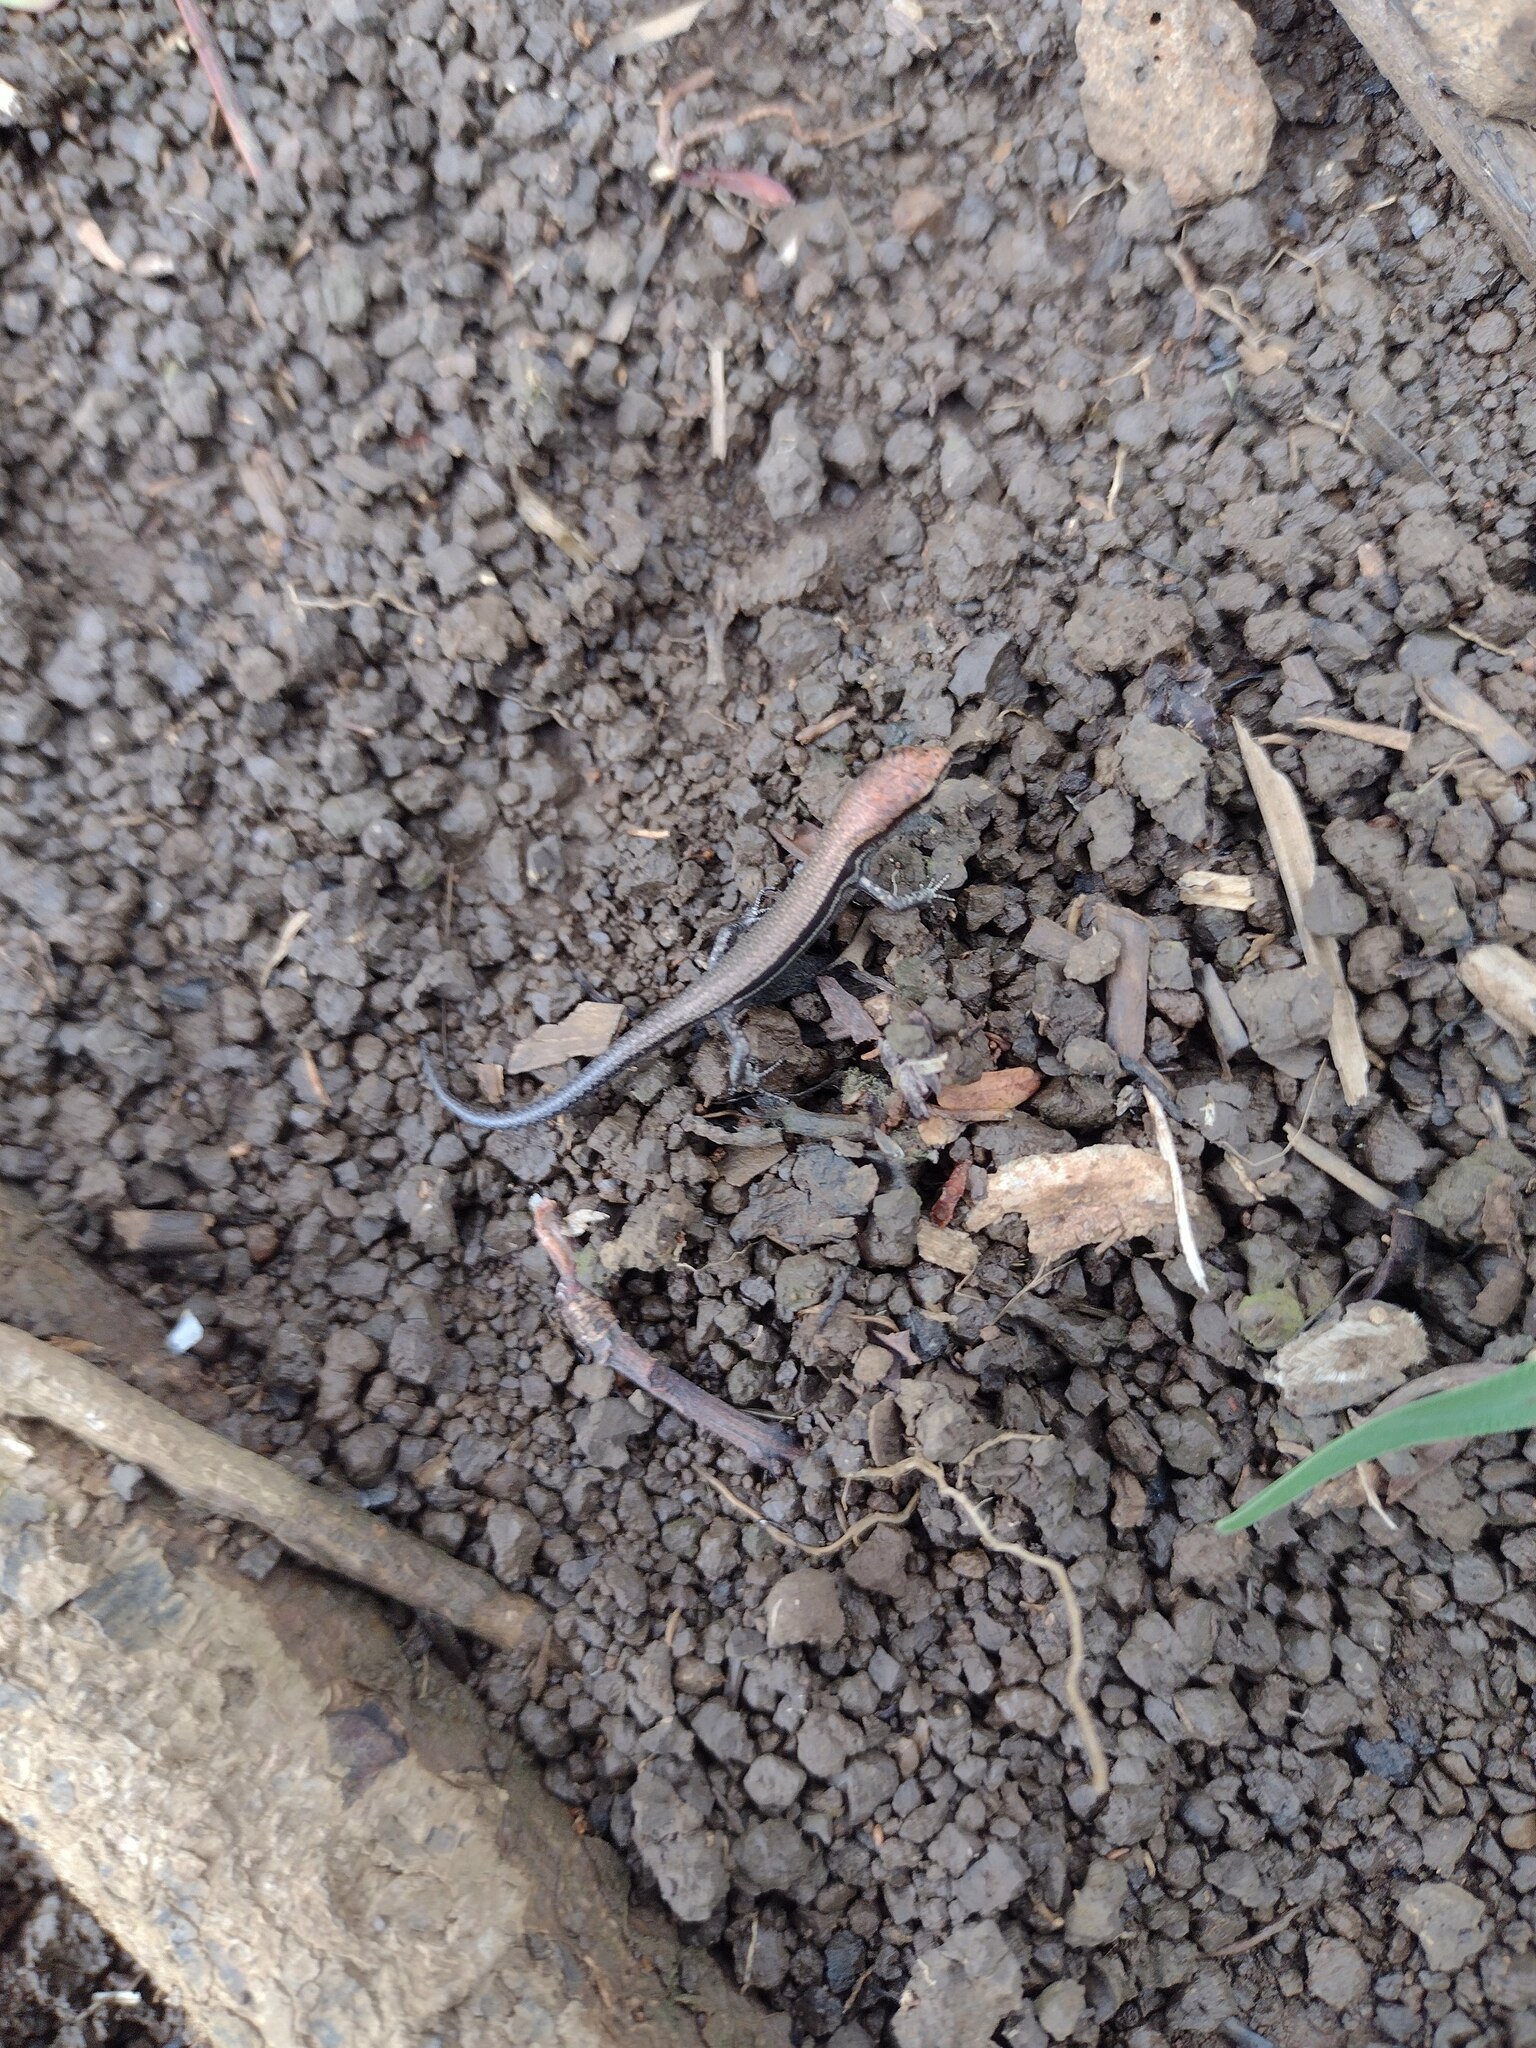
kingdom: Animalia
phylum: Chordata
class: Squamata
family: Scincidae
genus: Lampropholis
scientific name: Lampropholis delicata
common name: Plague skink
